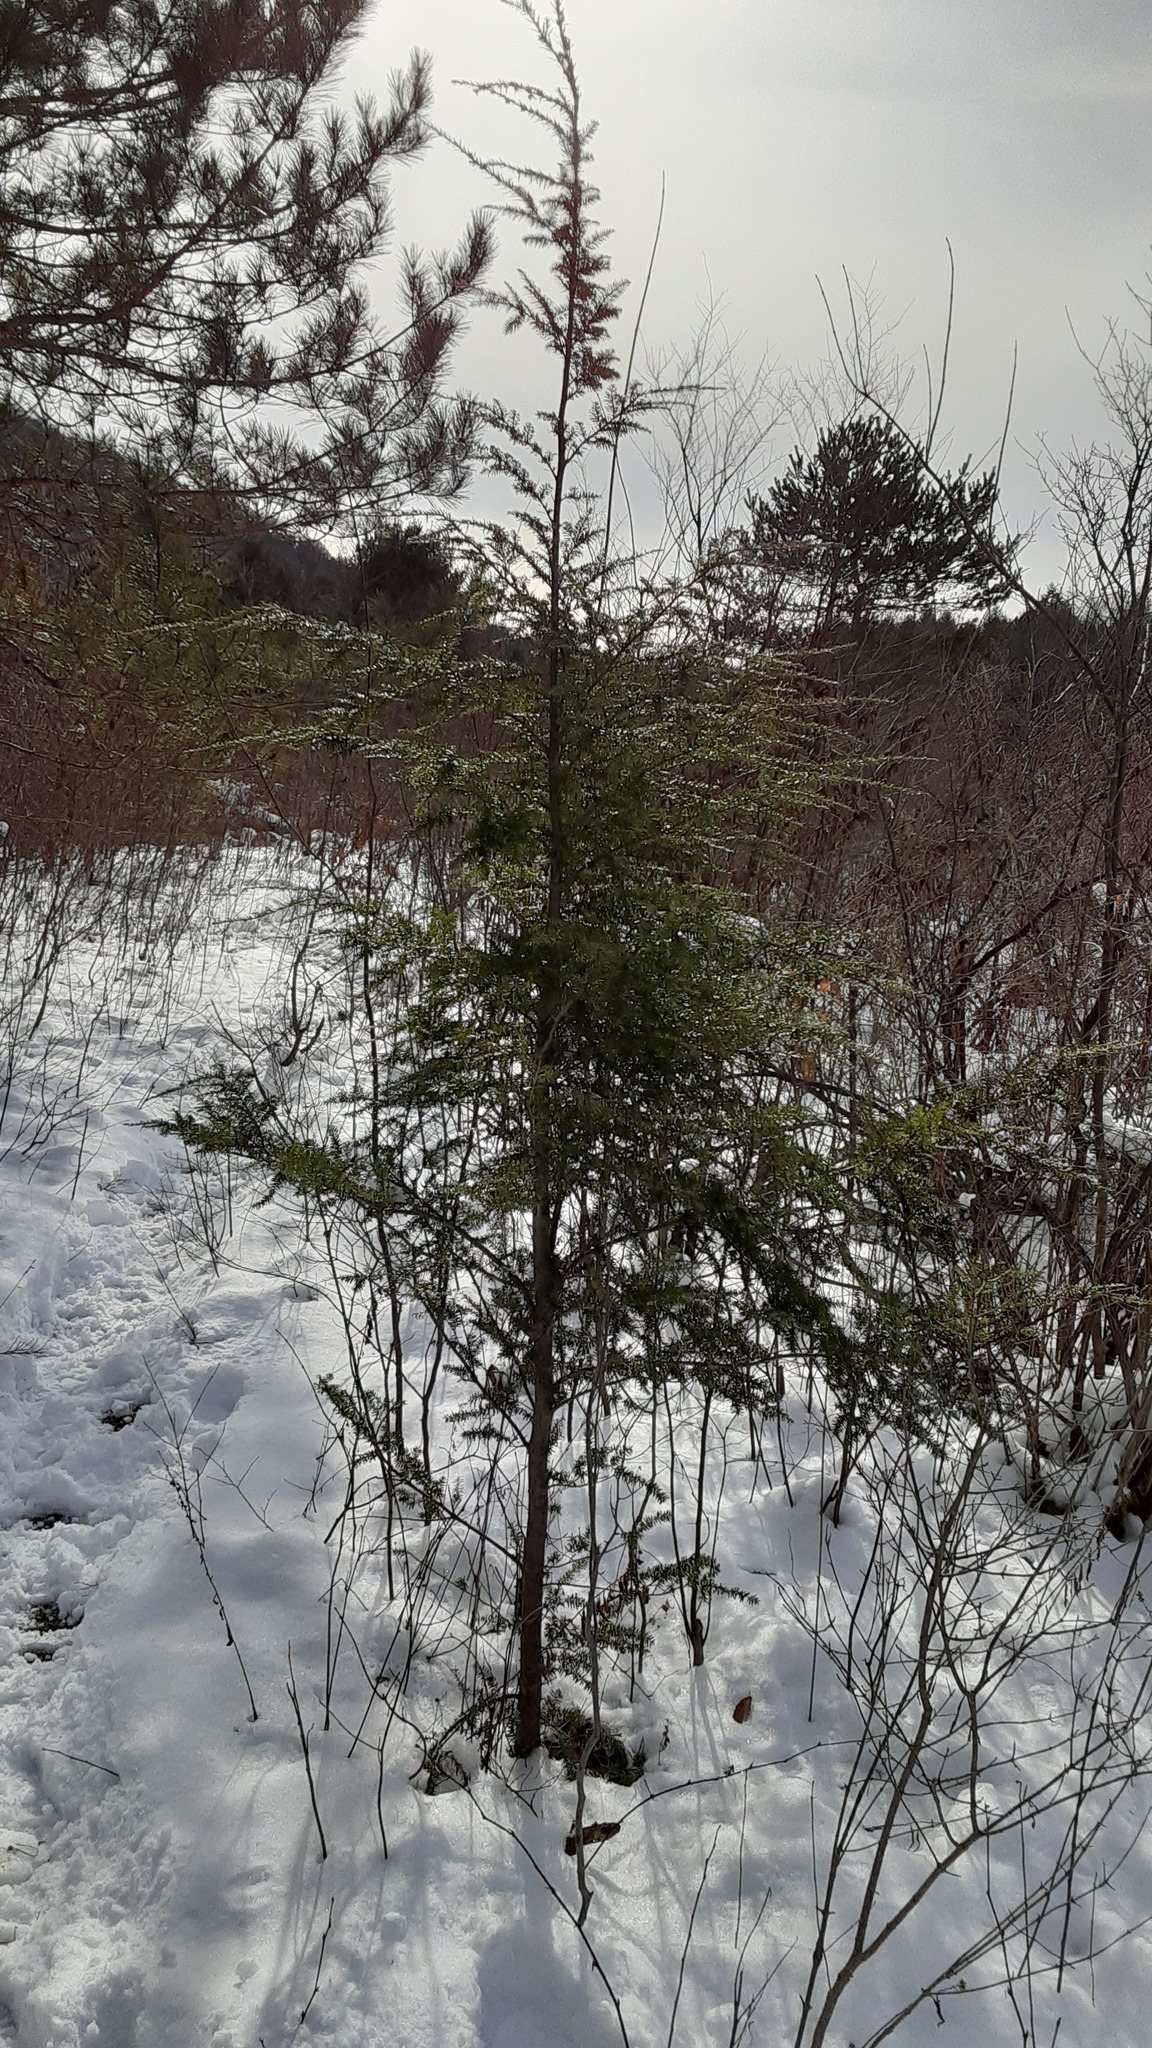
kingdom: Plantae
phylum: Tracheophyta
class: Pinopsida
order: Pinales
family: Pinaceae
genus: Tsuga
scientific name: Tsuga canadensis
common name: Eastern hemlock
